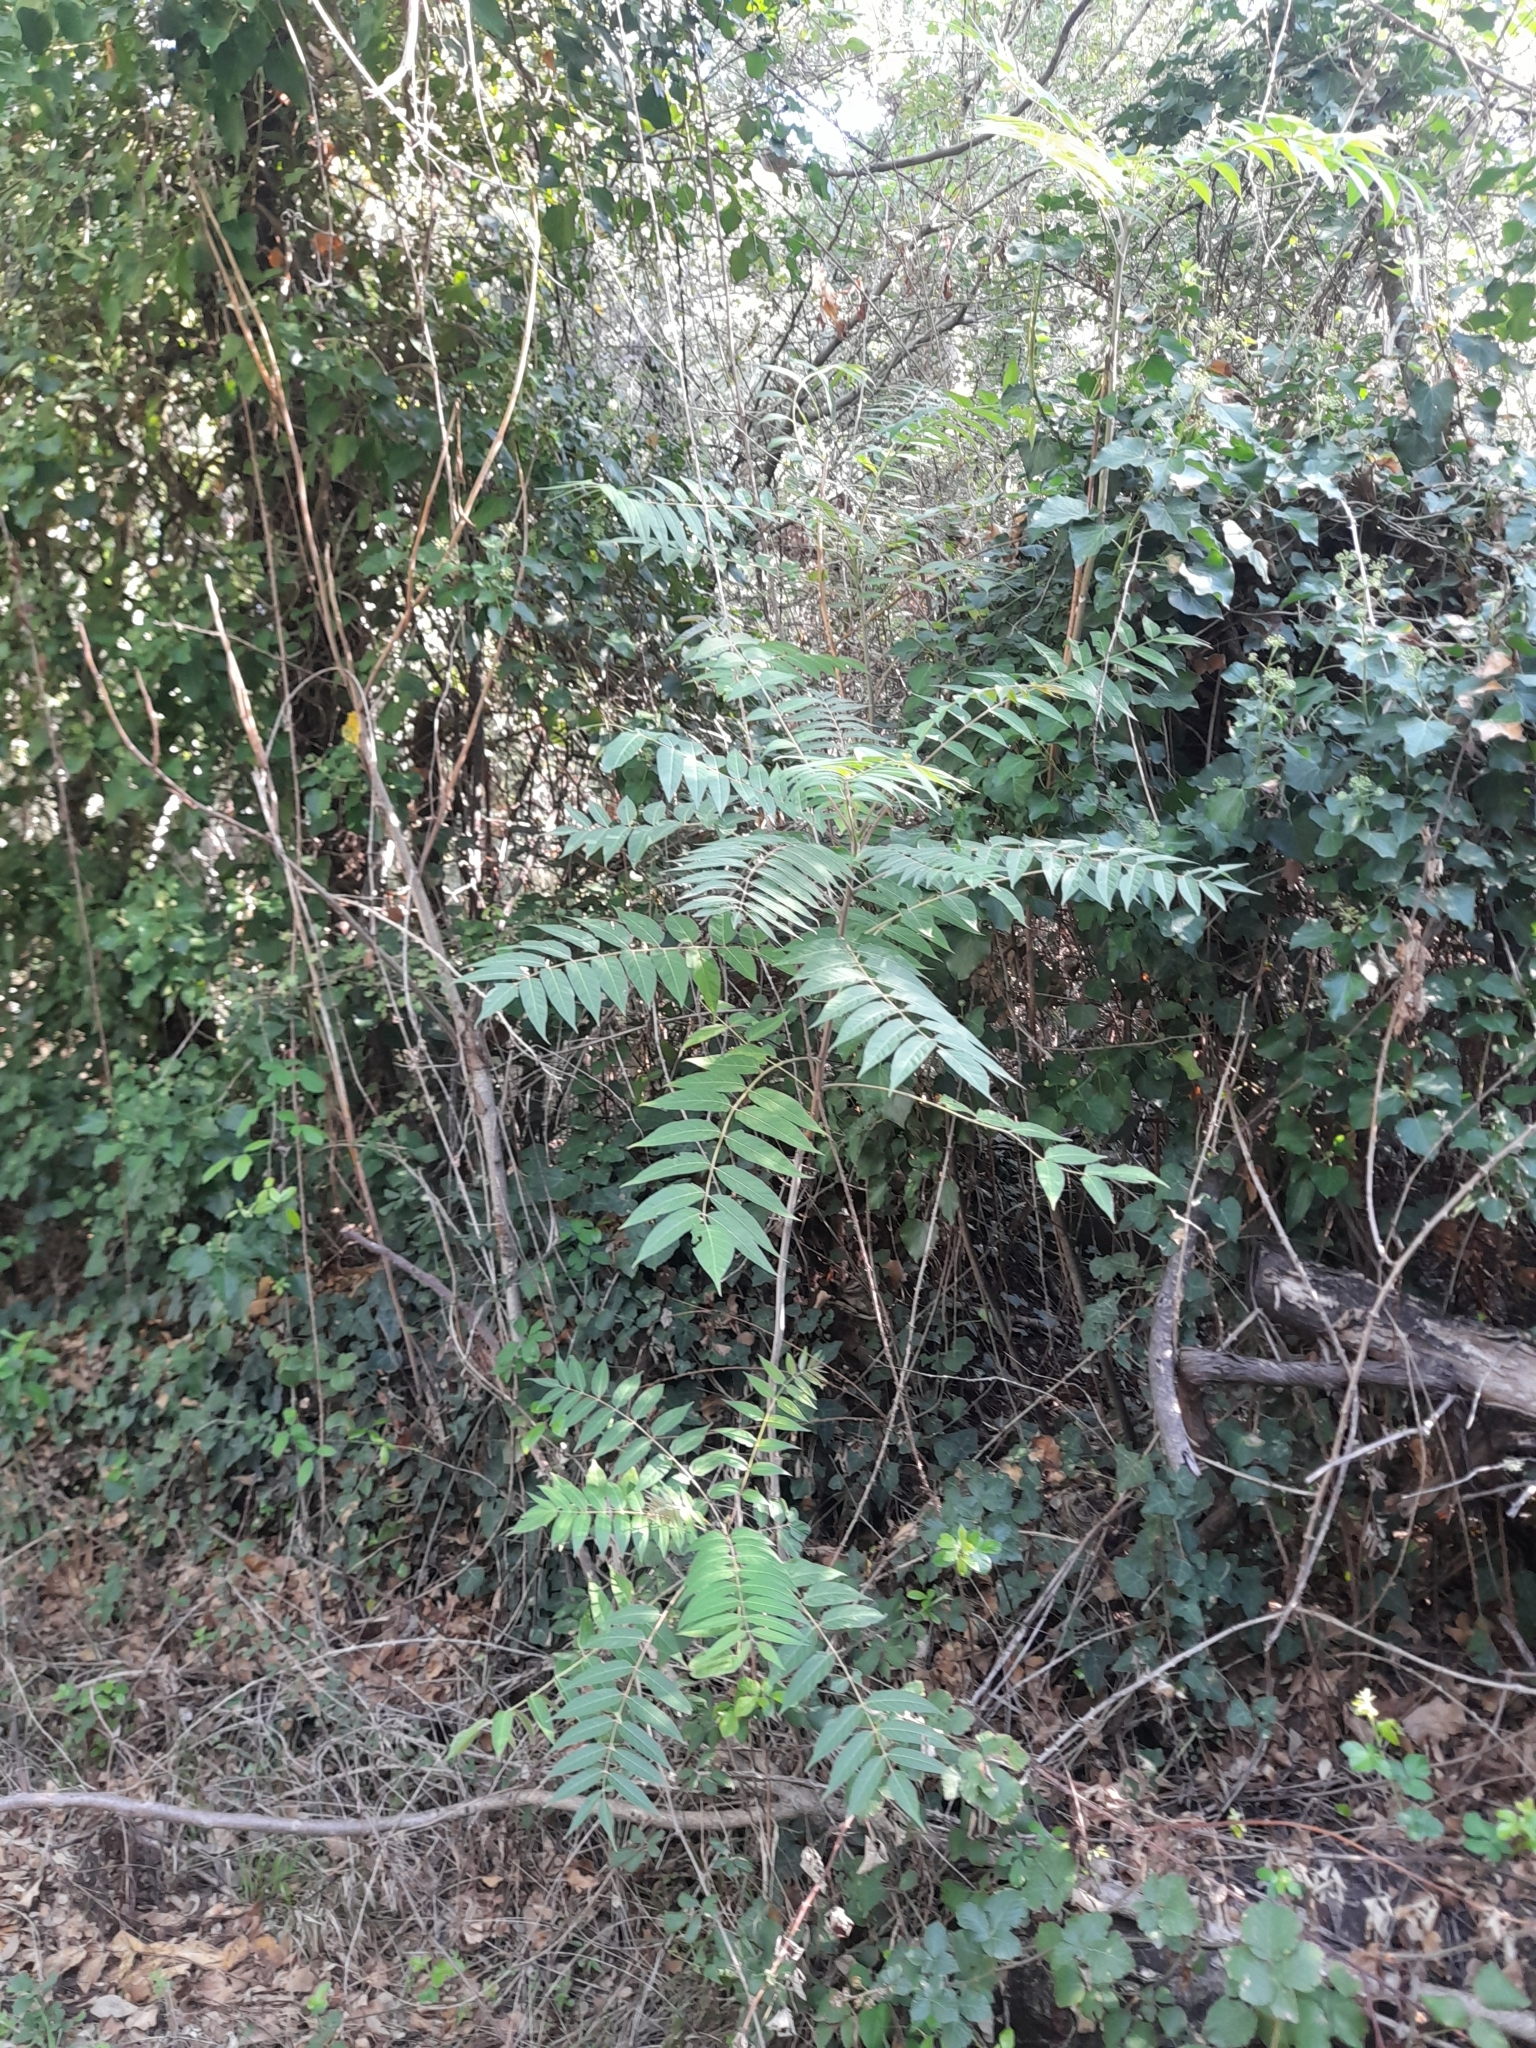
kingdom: Plantae
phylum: Tracheophyta
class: Magnoliopsida
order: Sapindales
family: Simaroubaceae
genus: Ailanthus
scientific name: Ailanthus altissima
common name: Tree-of-heaven
